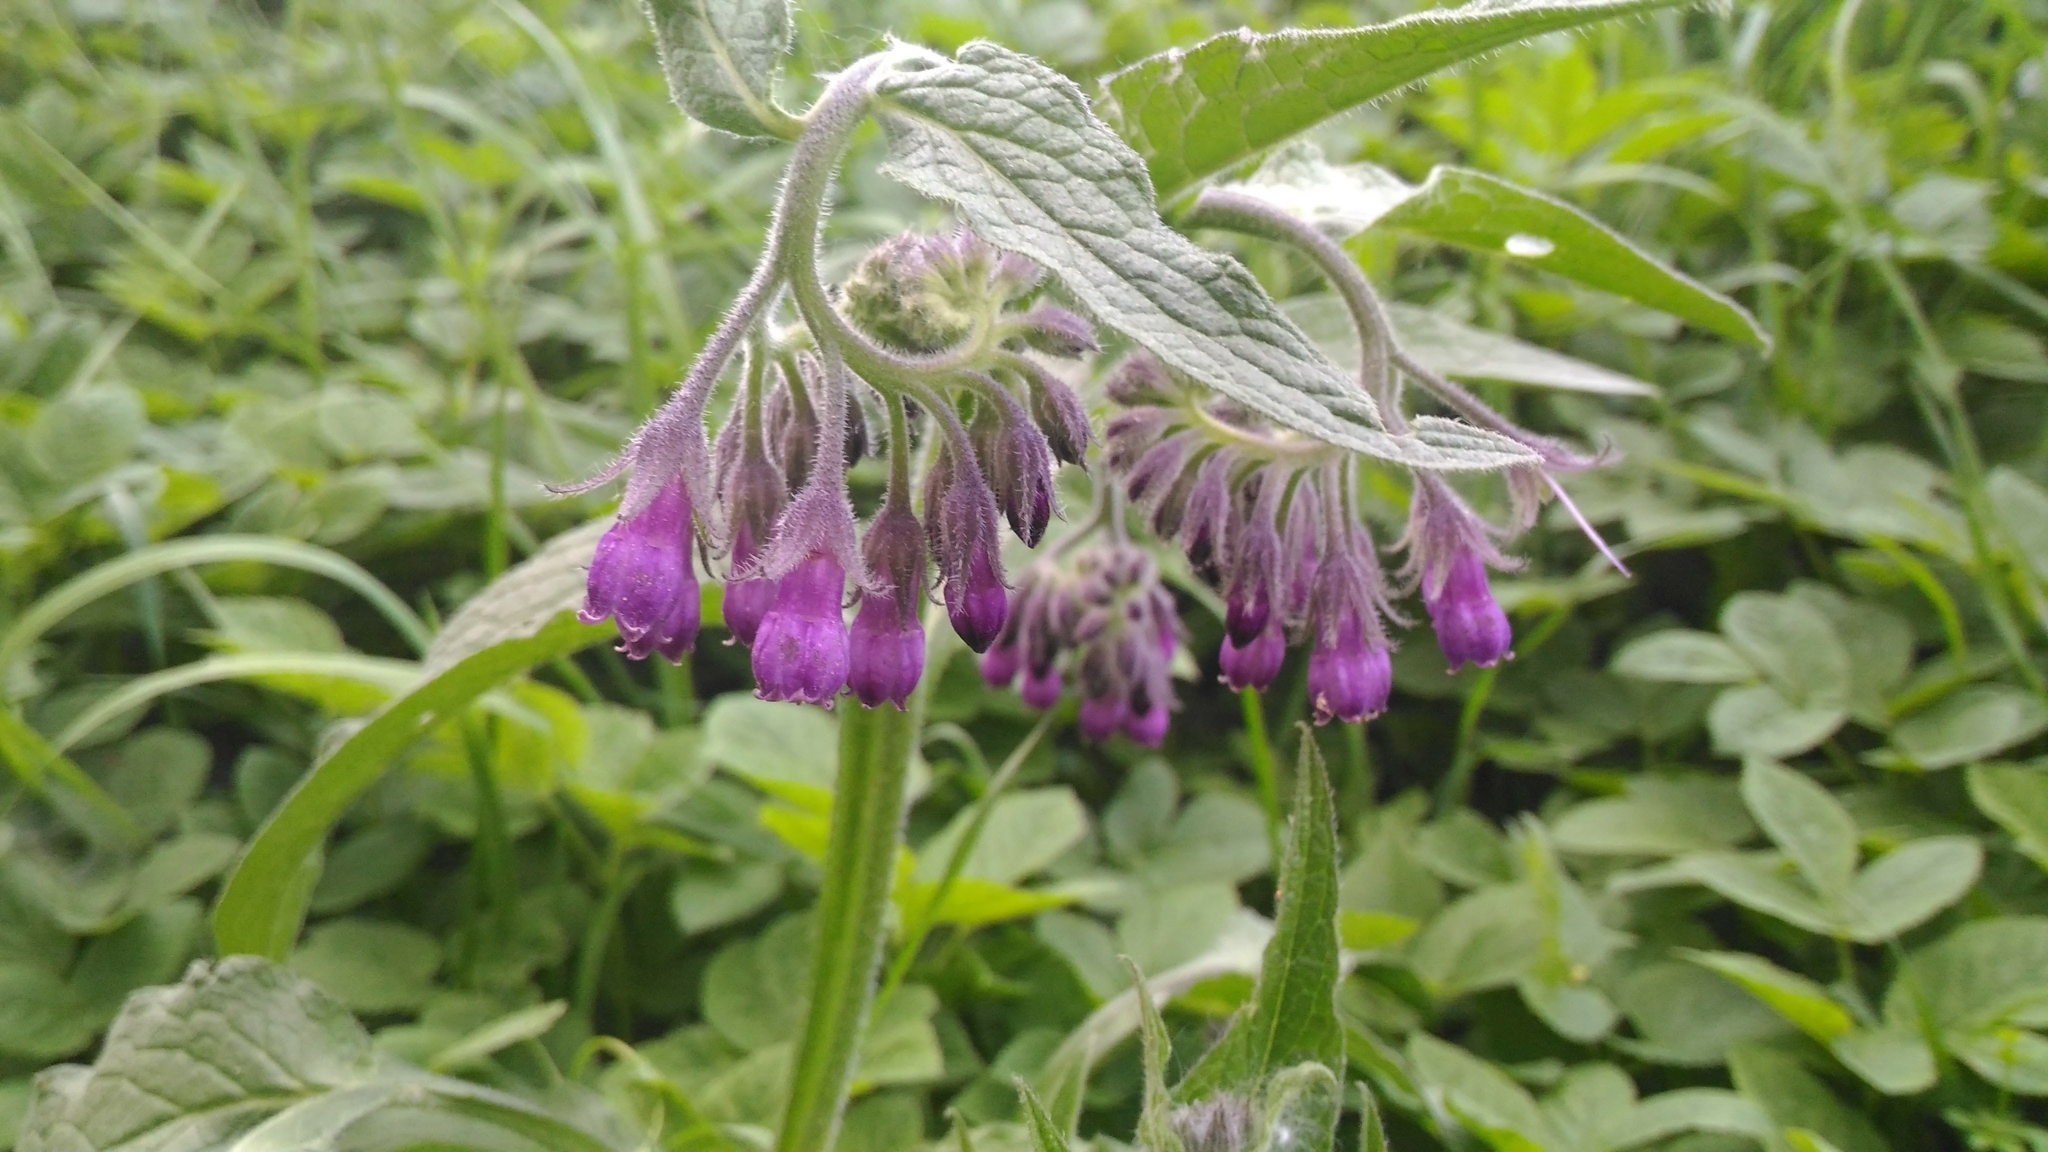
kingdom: Plantae
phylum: Tracheophyta
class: Magnoliopsida
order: Boraginales
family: Boraginaceae
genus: Symphytum
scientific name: Symphytum officinale
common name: Common comfrey
